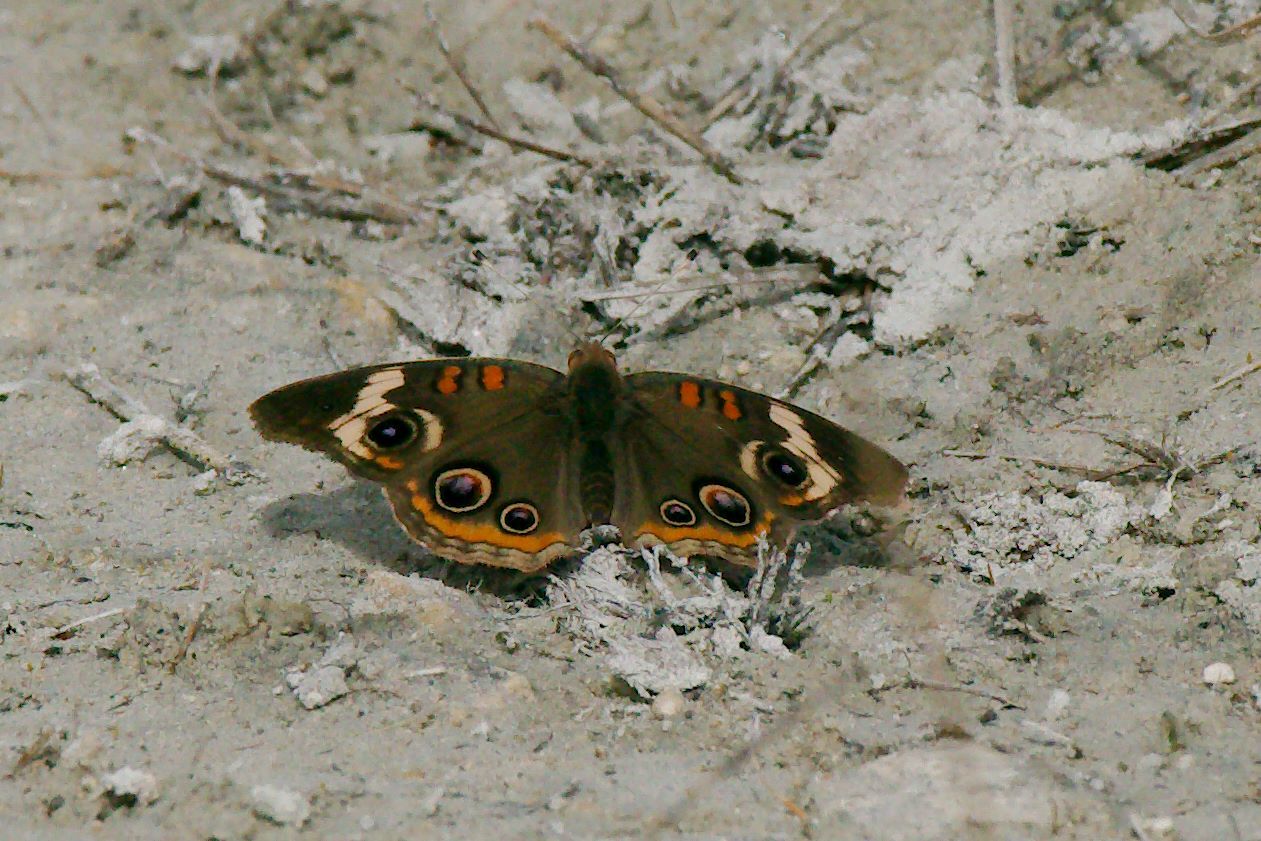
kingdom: Animalia
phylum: Arthropoda
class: Insecta
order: Lepidoptera
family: Nymphalidae
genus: Junonia
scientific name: Junonia coenia
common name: Common buckeye
